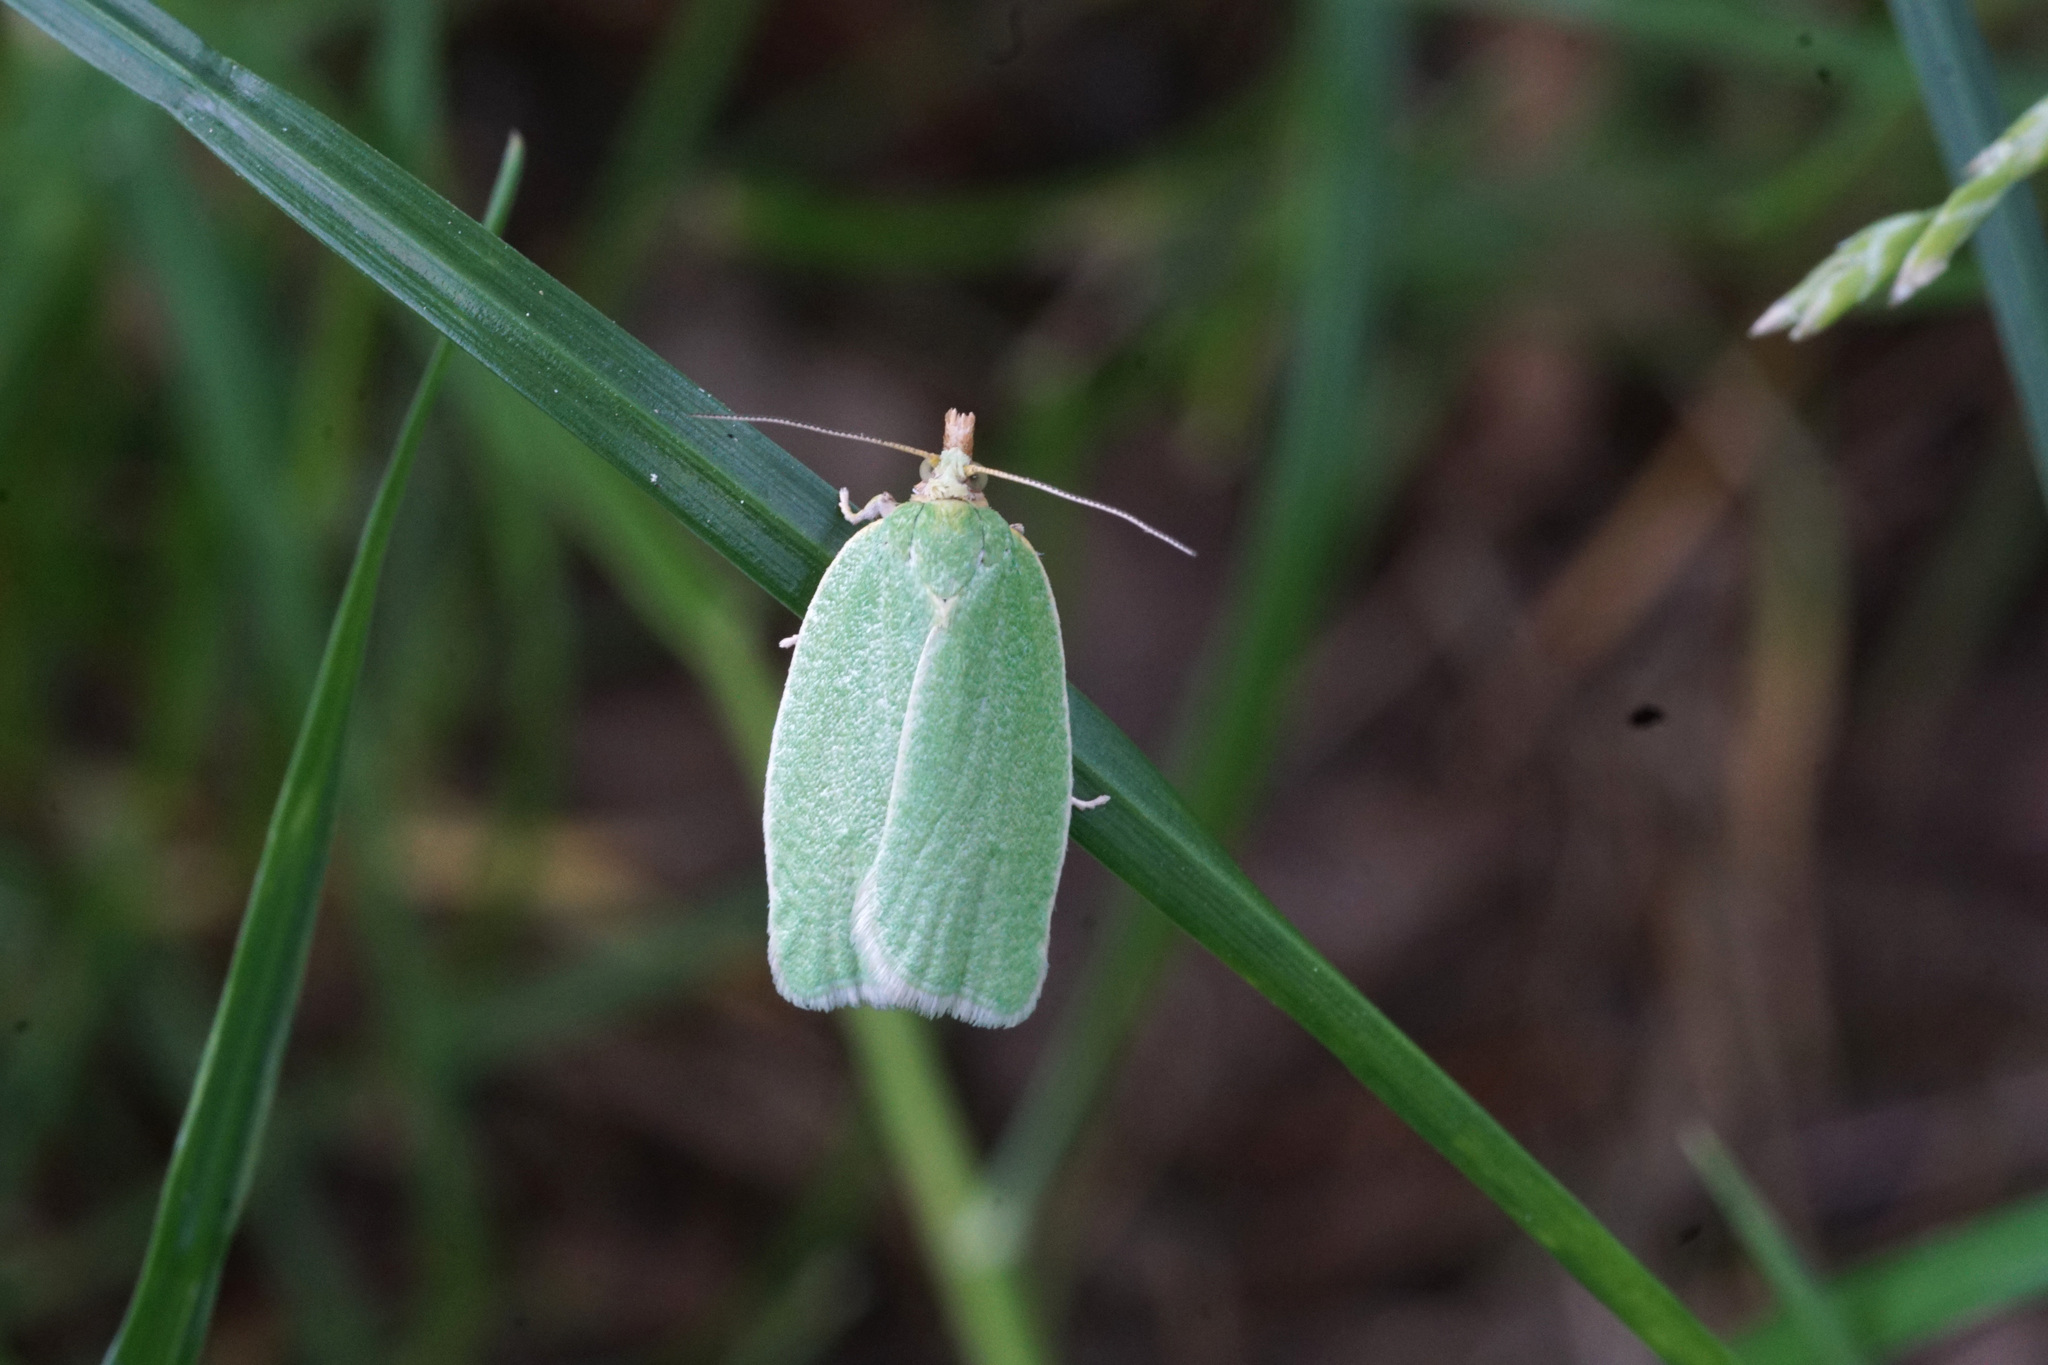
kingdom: Animalia
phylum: Arthropoda
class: Insecta
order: Lepidoptera
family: Tortricidae
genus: Tortrix
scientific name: Tortrix viridana
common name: Green oak tortrix
